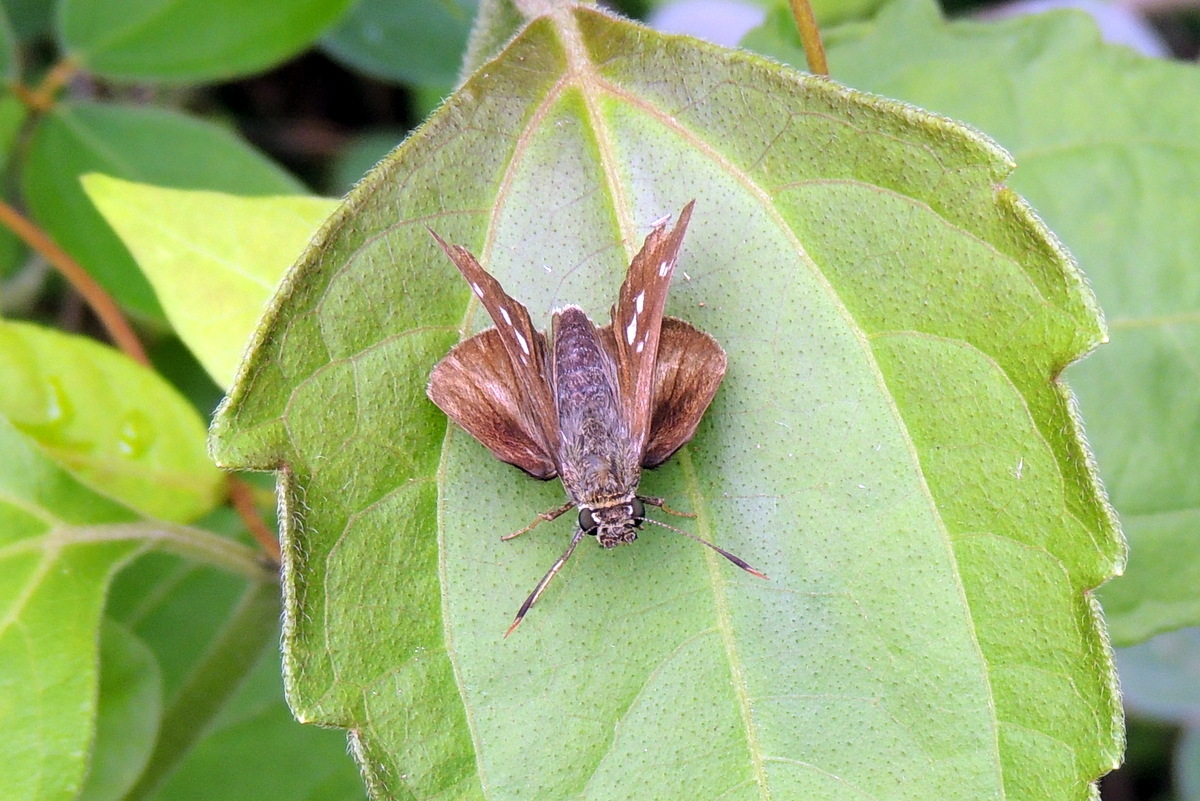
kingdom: Animalia
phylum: Arthropoda
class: Insecta
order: Lepidoptera
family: Hesperiidae
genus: Halpe
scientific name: Halpe porus
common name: Moore's ace
